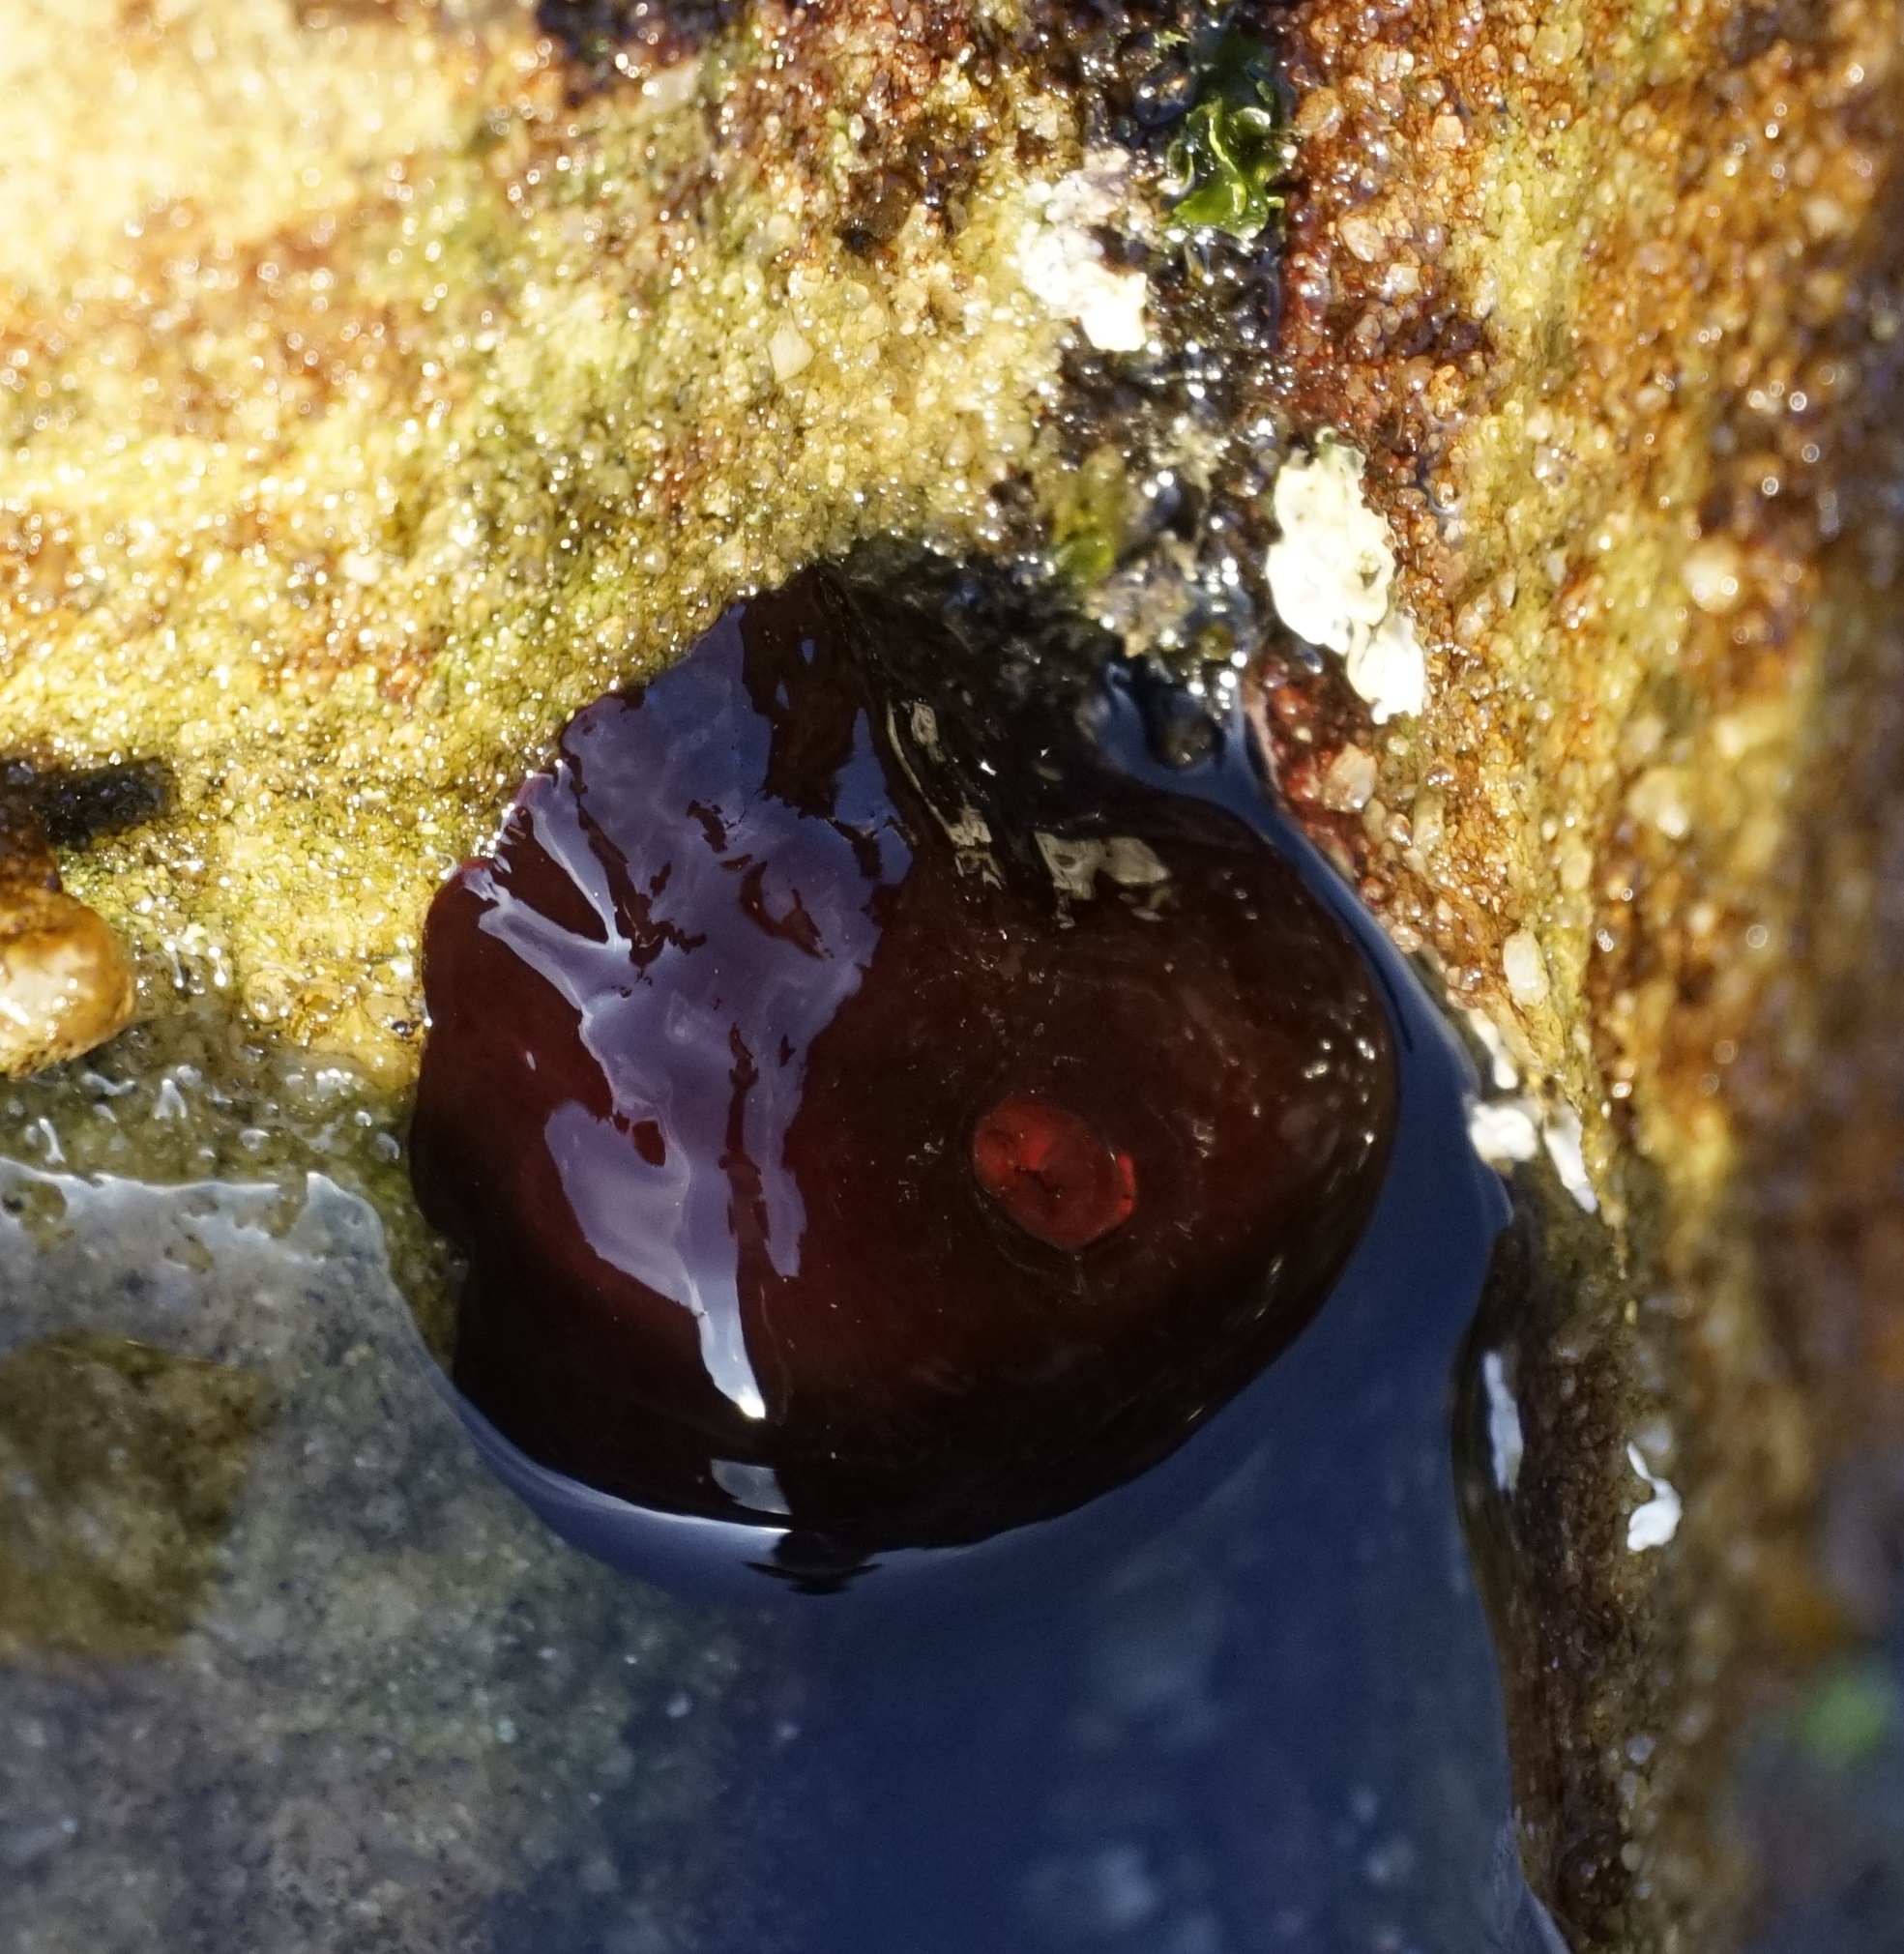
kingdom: Animalia
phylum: Cnidaria
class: Anthozoa
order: Actiniaria
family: Actiniidae
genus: Actinia
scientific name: Actinia tenebrosa
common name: Waratah anemone
